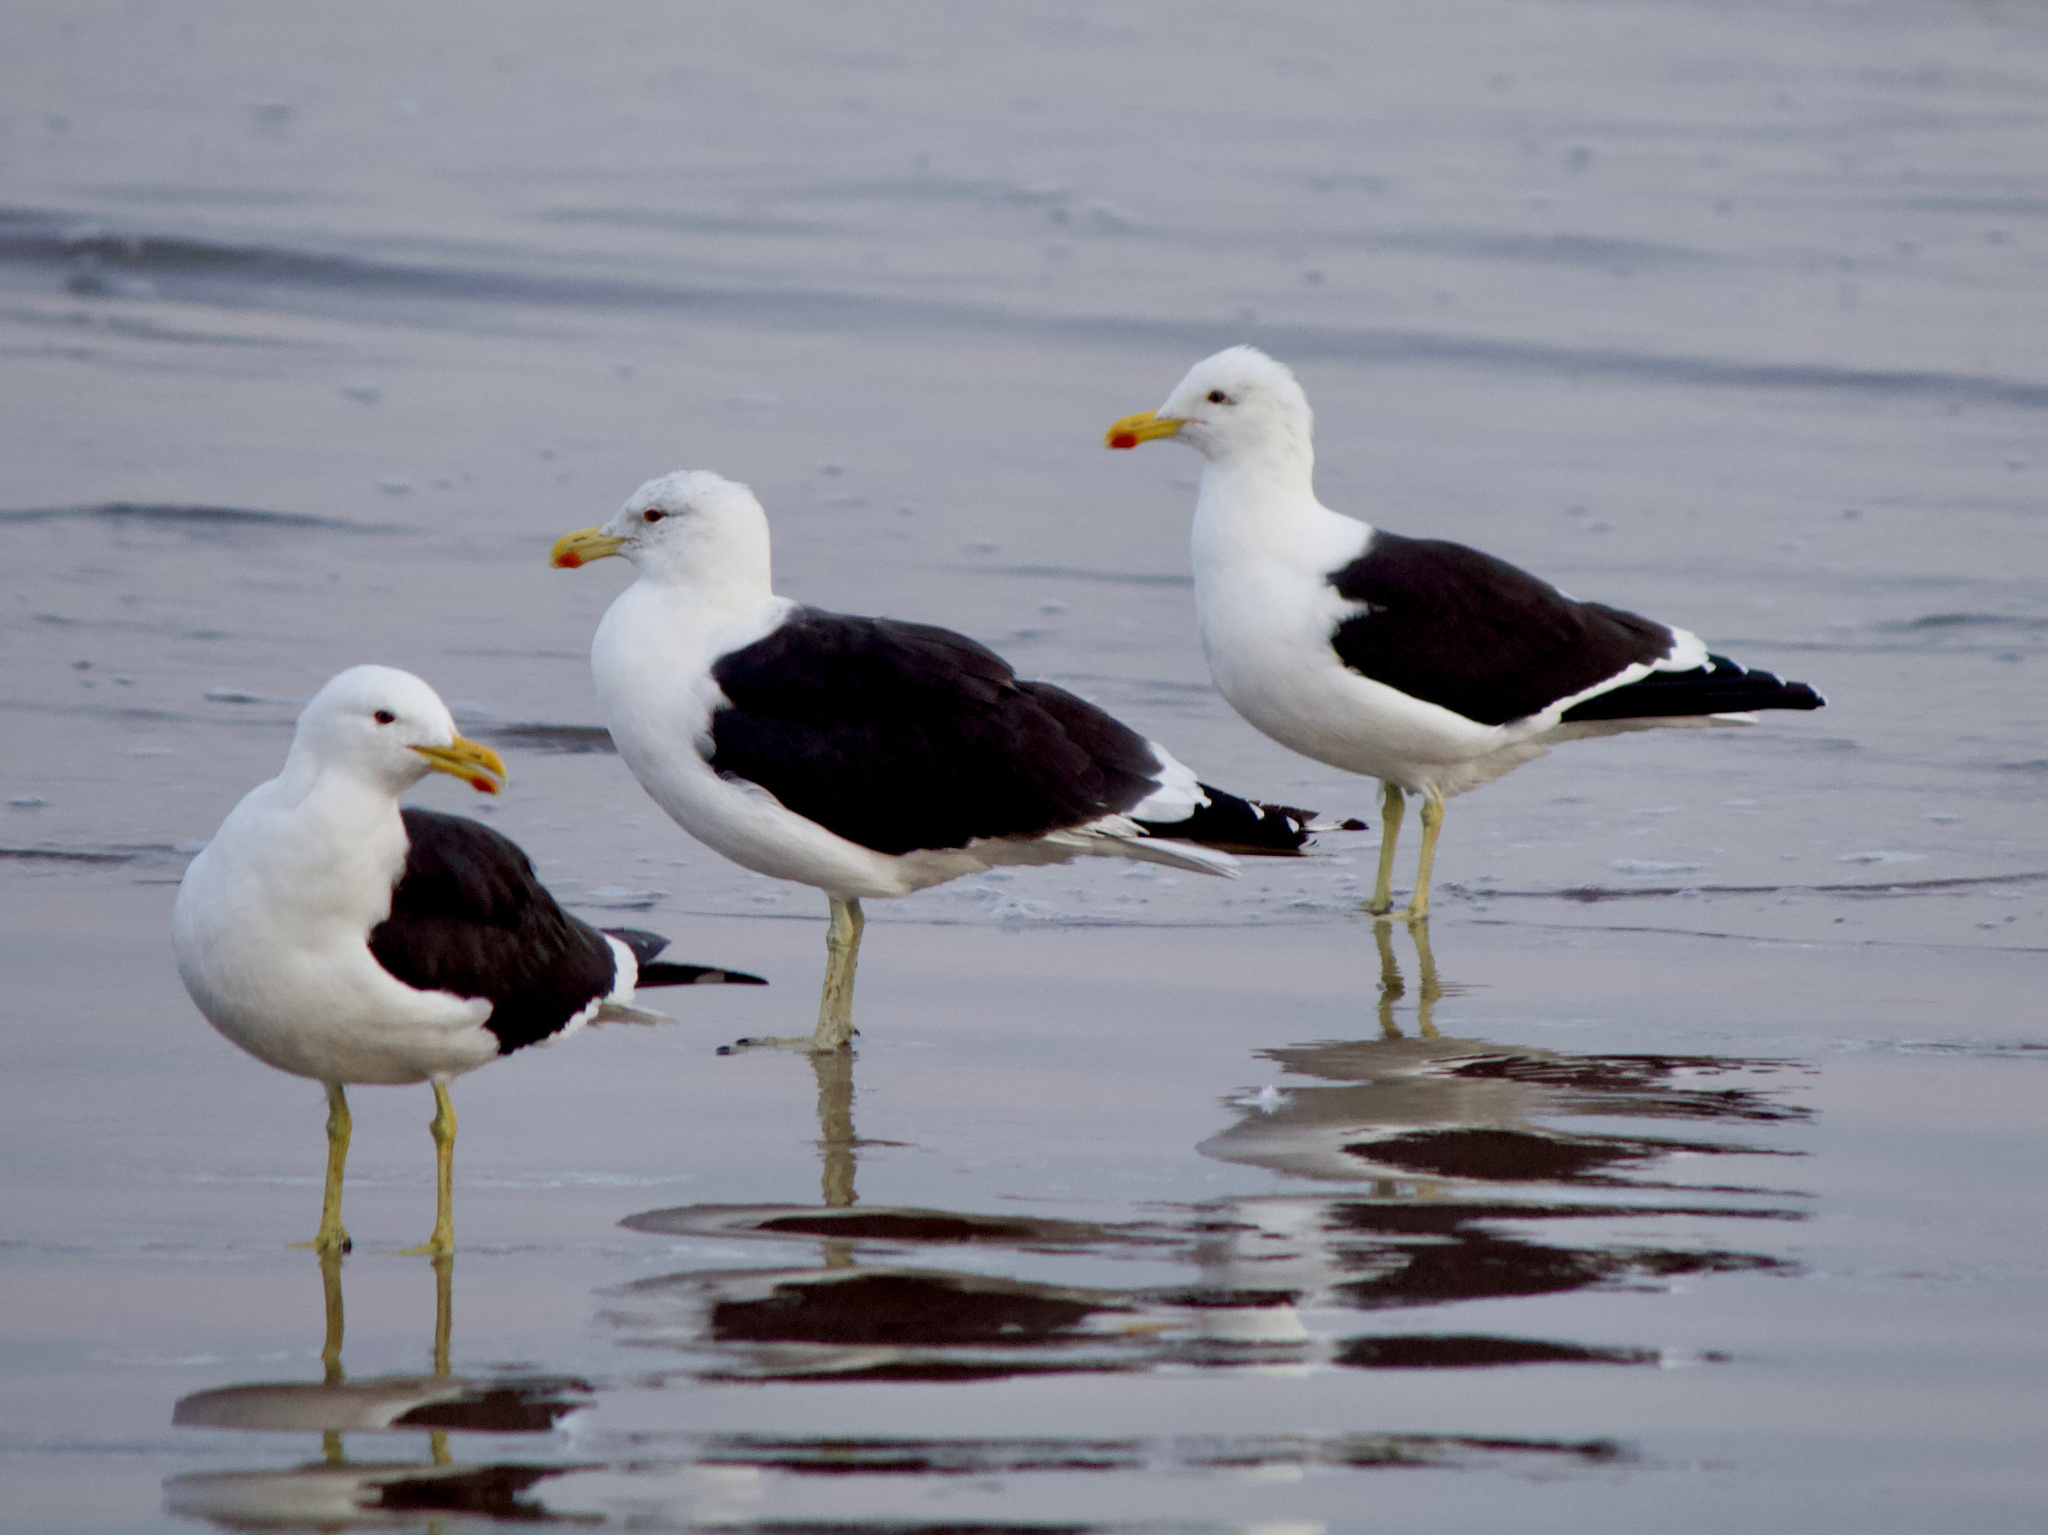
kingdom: Animalia
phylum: Chordata
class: Aves
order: Charadriiformes
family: Laridae
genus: Larus
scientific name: Larus dominicanus
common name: Kelp gull
